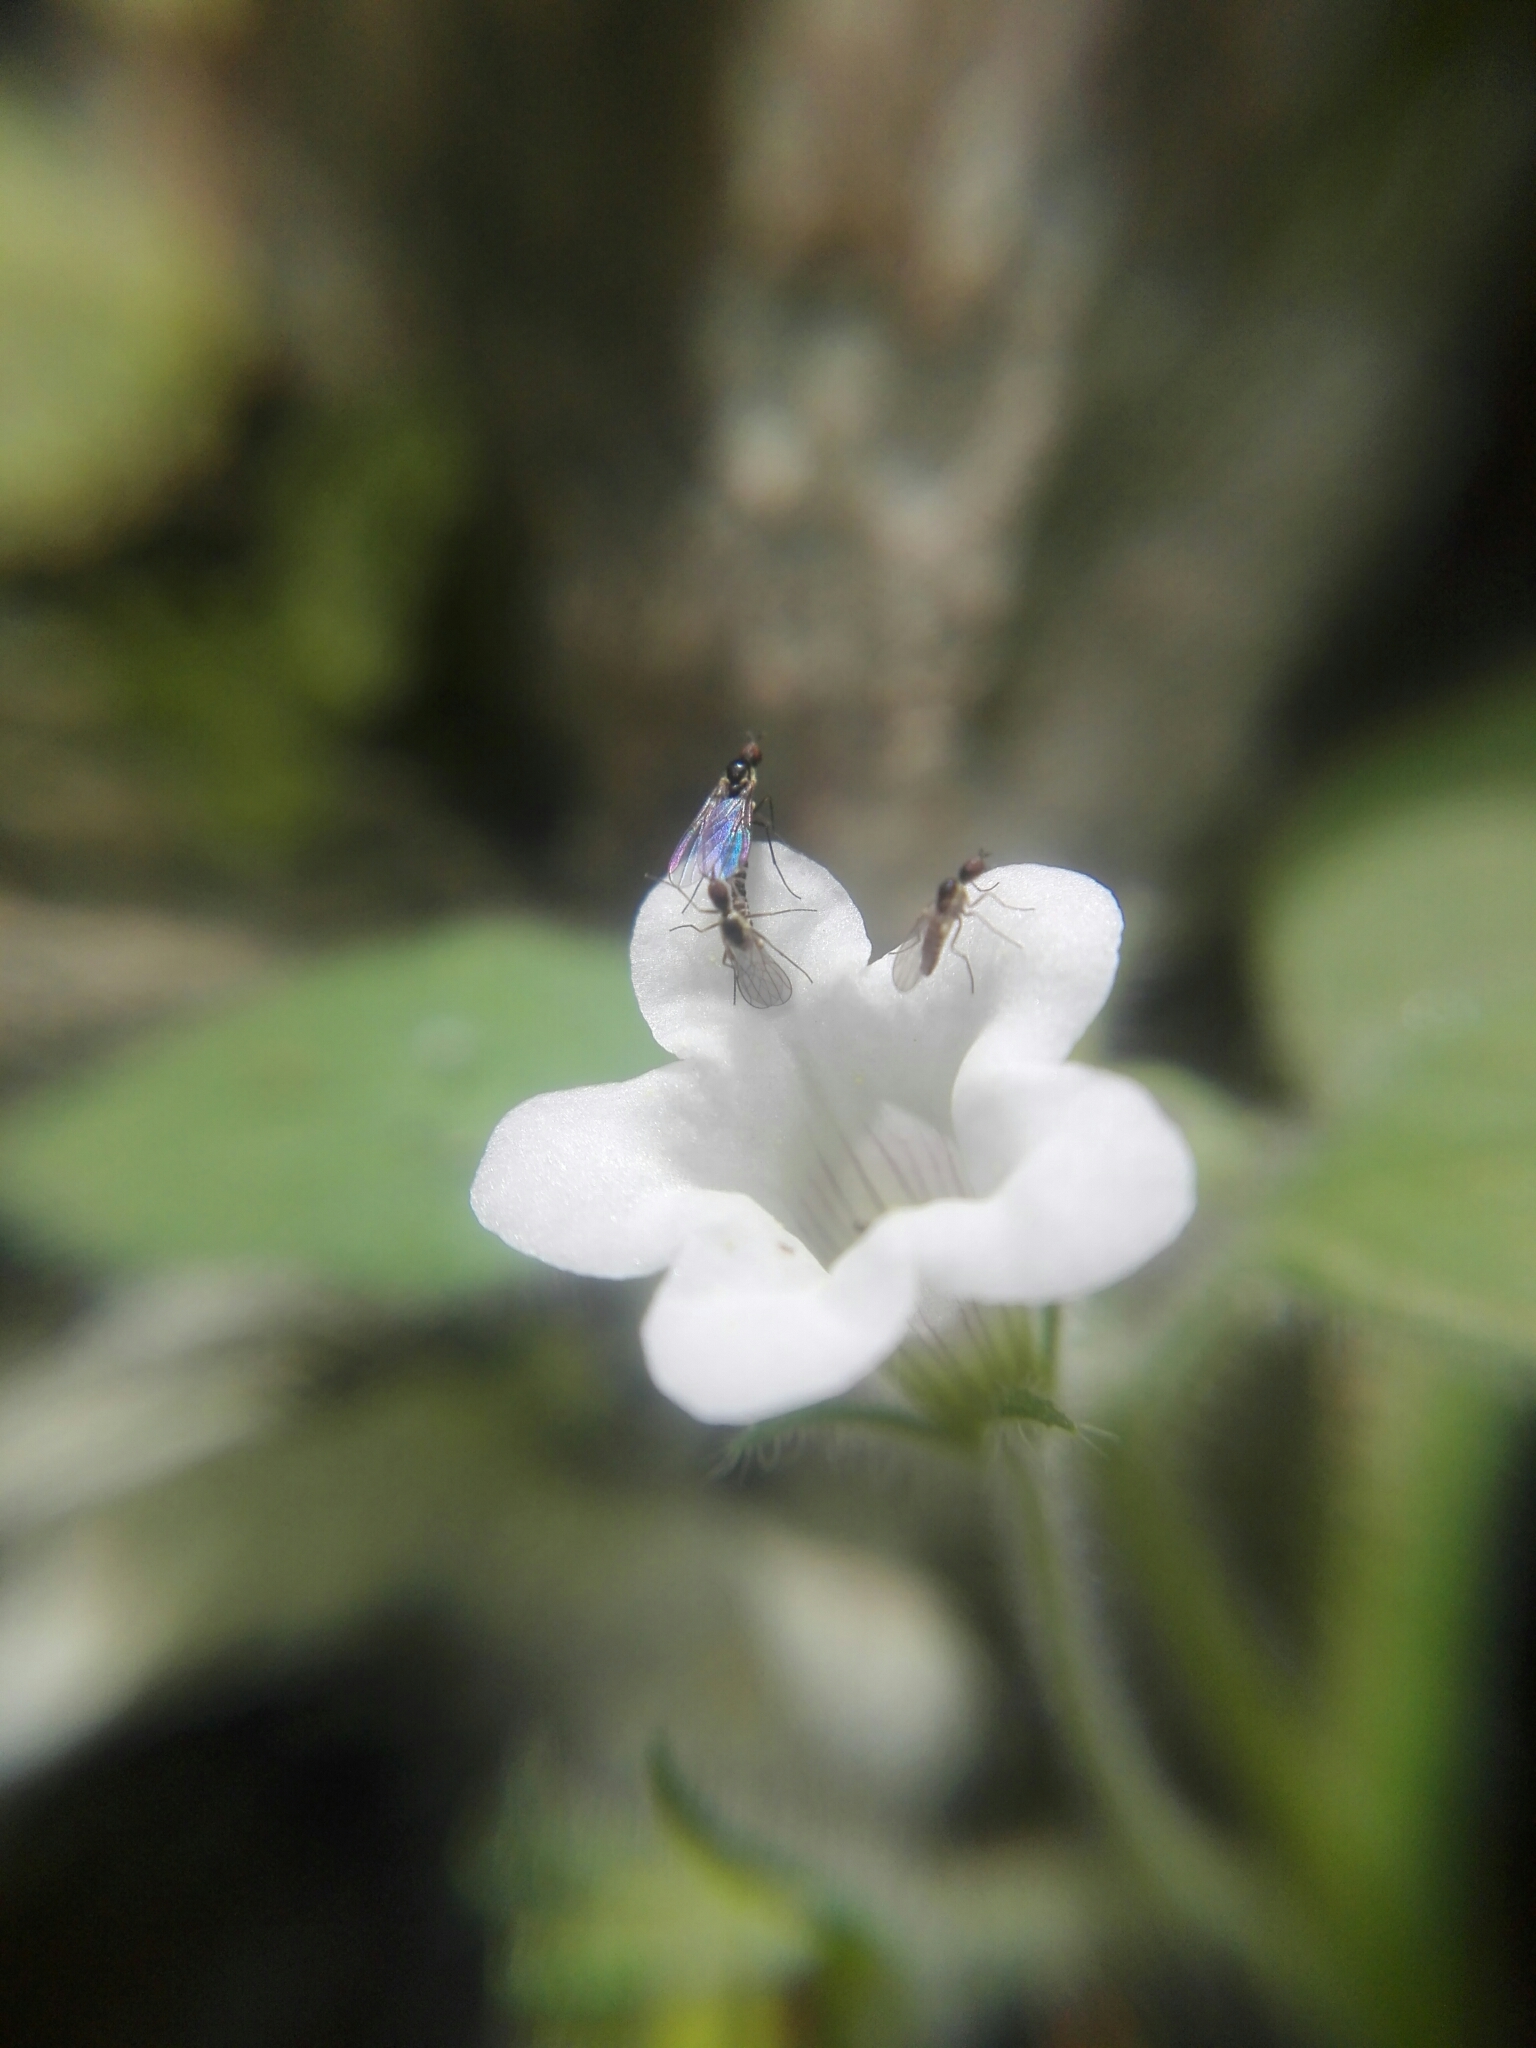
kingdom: Plantae
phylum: Tracheophyta
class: Magnoliopsida
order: Boraginales
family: Namaceae
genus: Nama
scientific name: Nama jamaicensis
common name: Jamaicanweed
